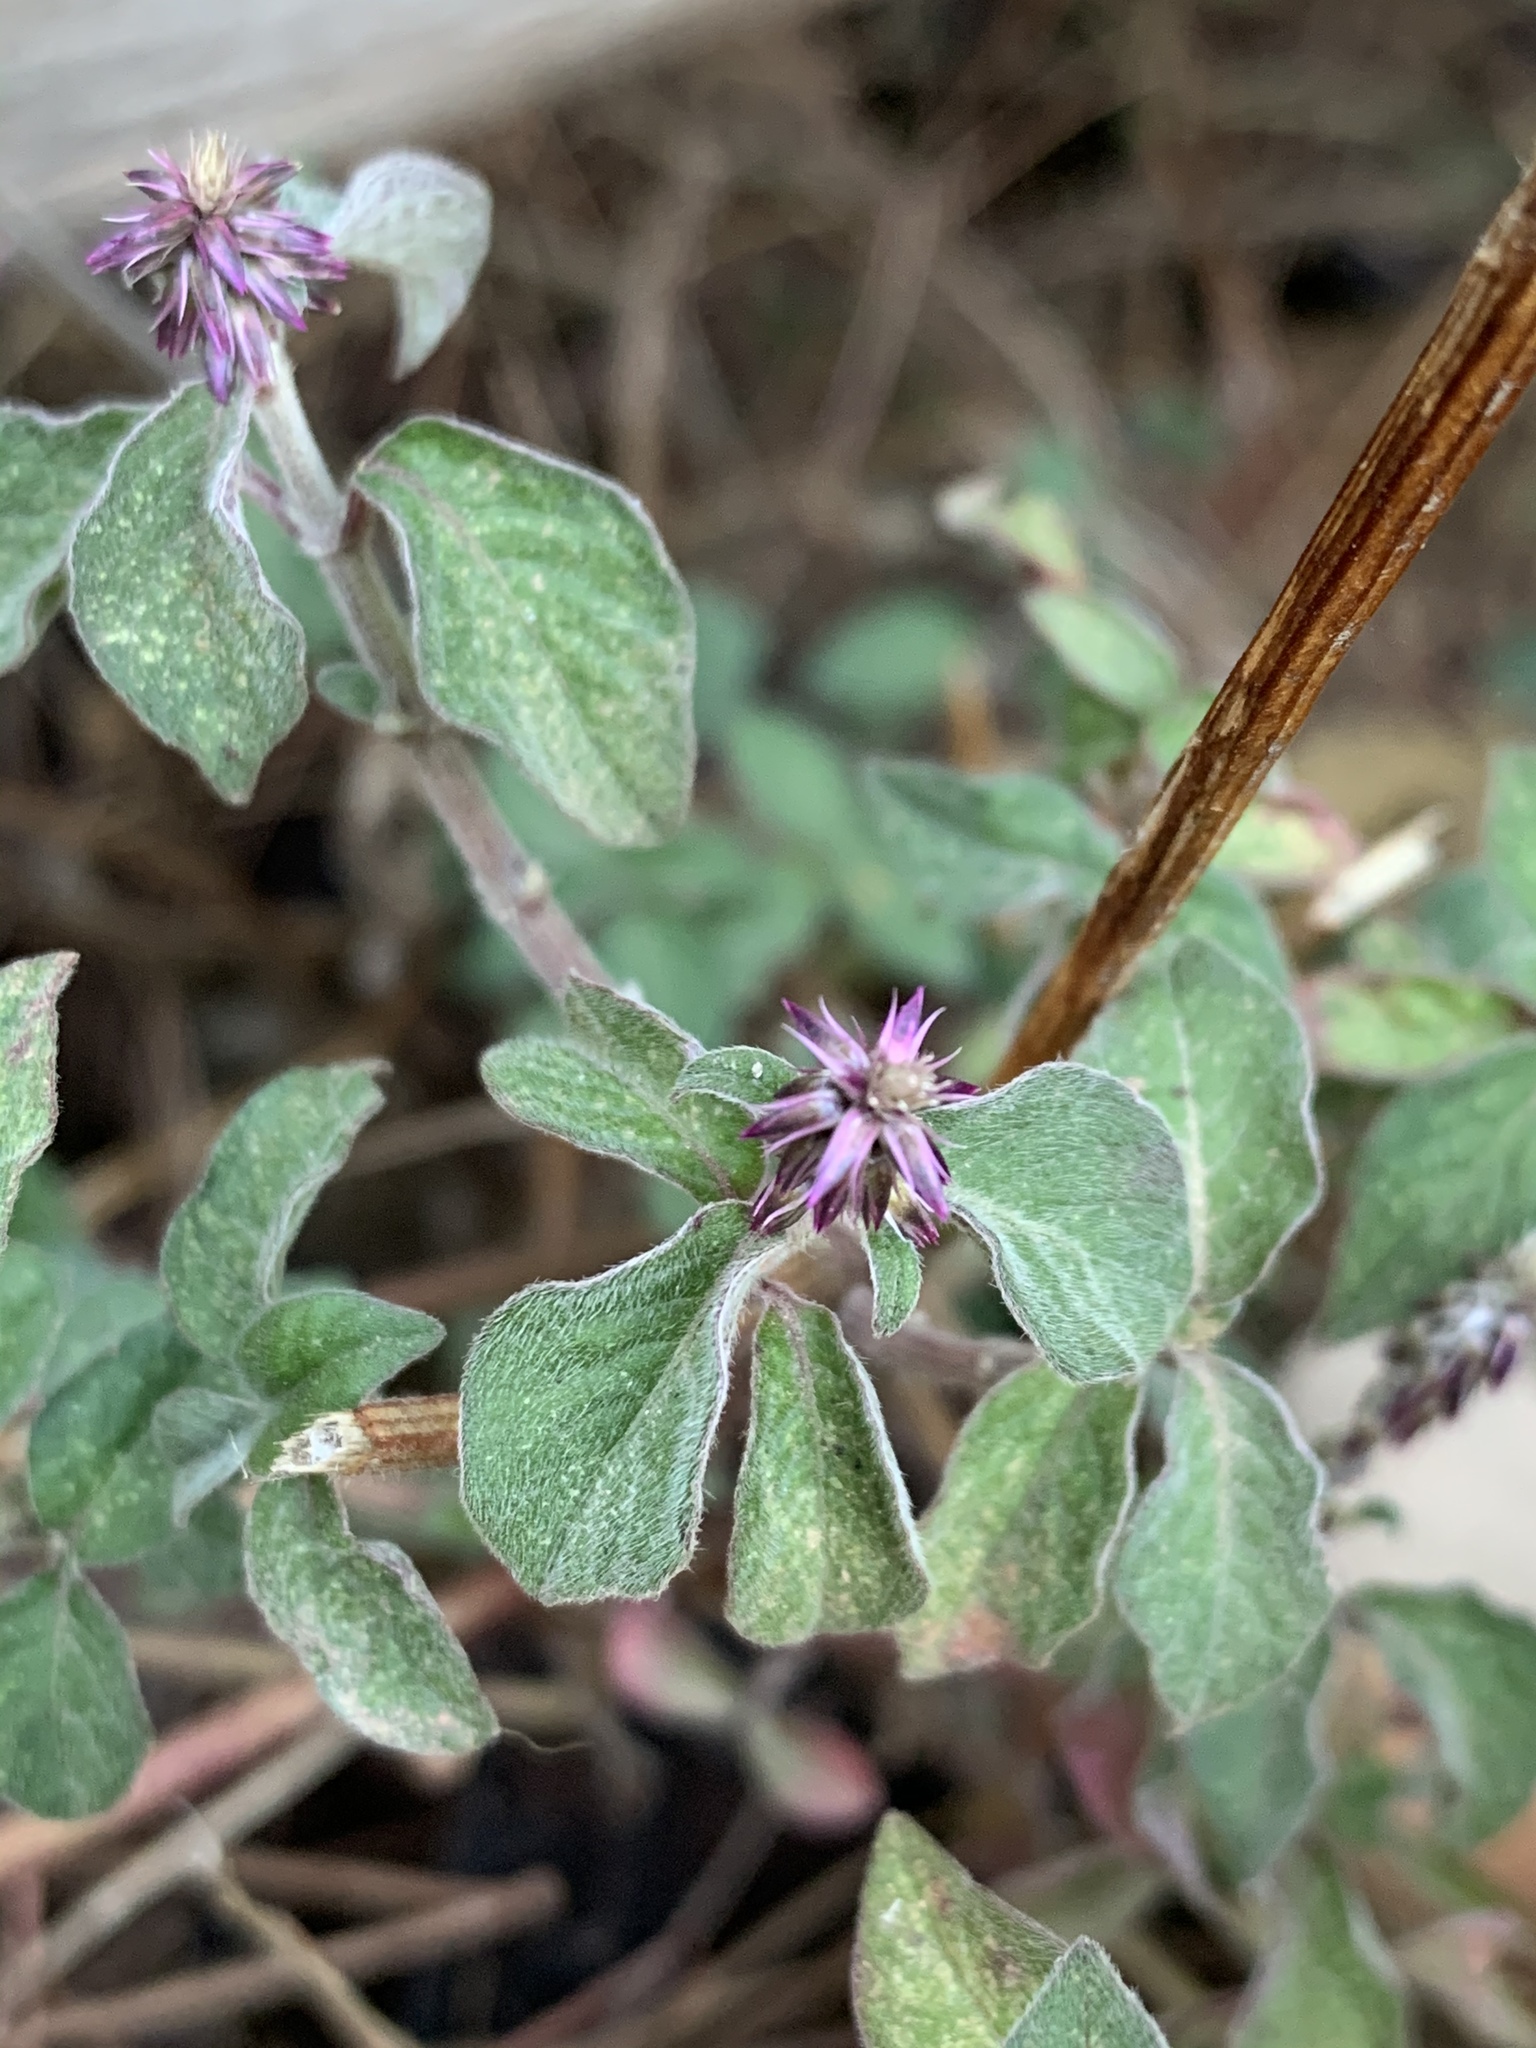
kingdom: Plantae
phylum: Tracheophyta
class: Magnoliopsida
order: Caryophyllales
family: Amaranthaceae
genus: Achyranthes
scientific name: Achyranthes aspera
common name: Devil's horsewhip
